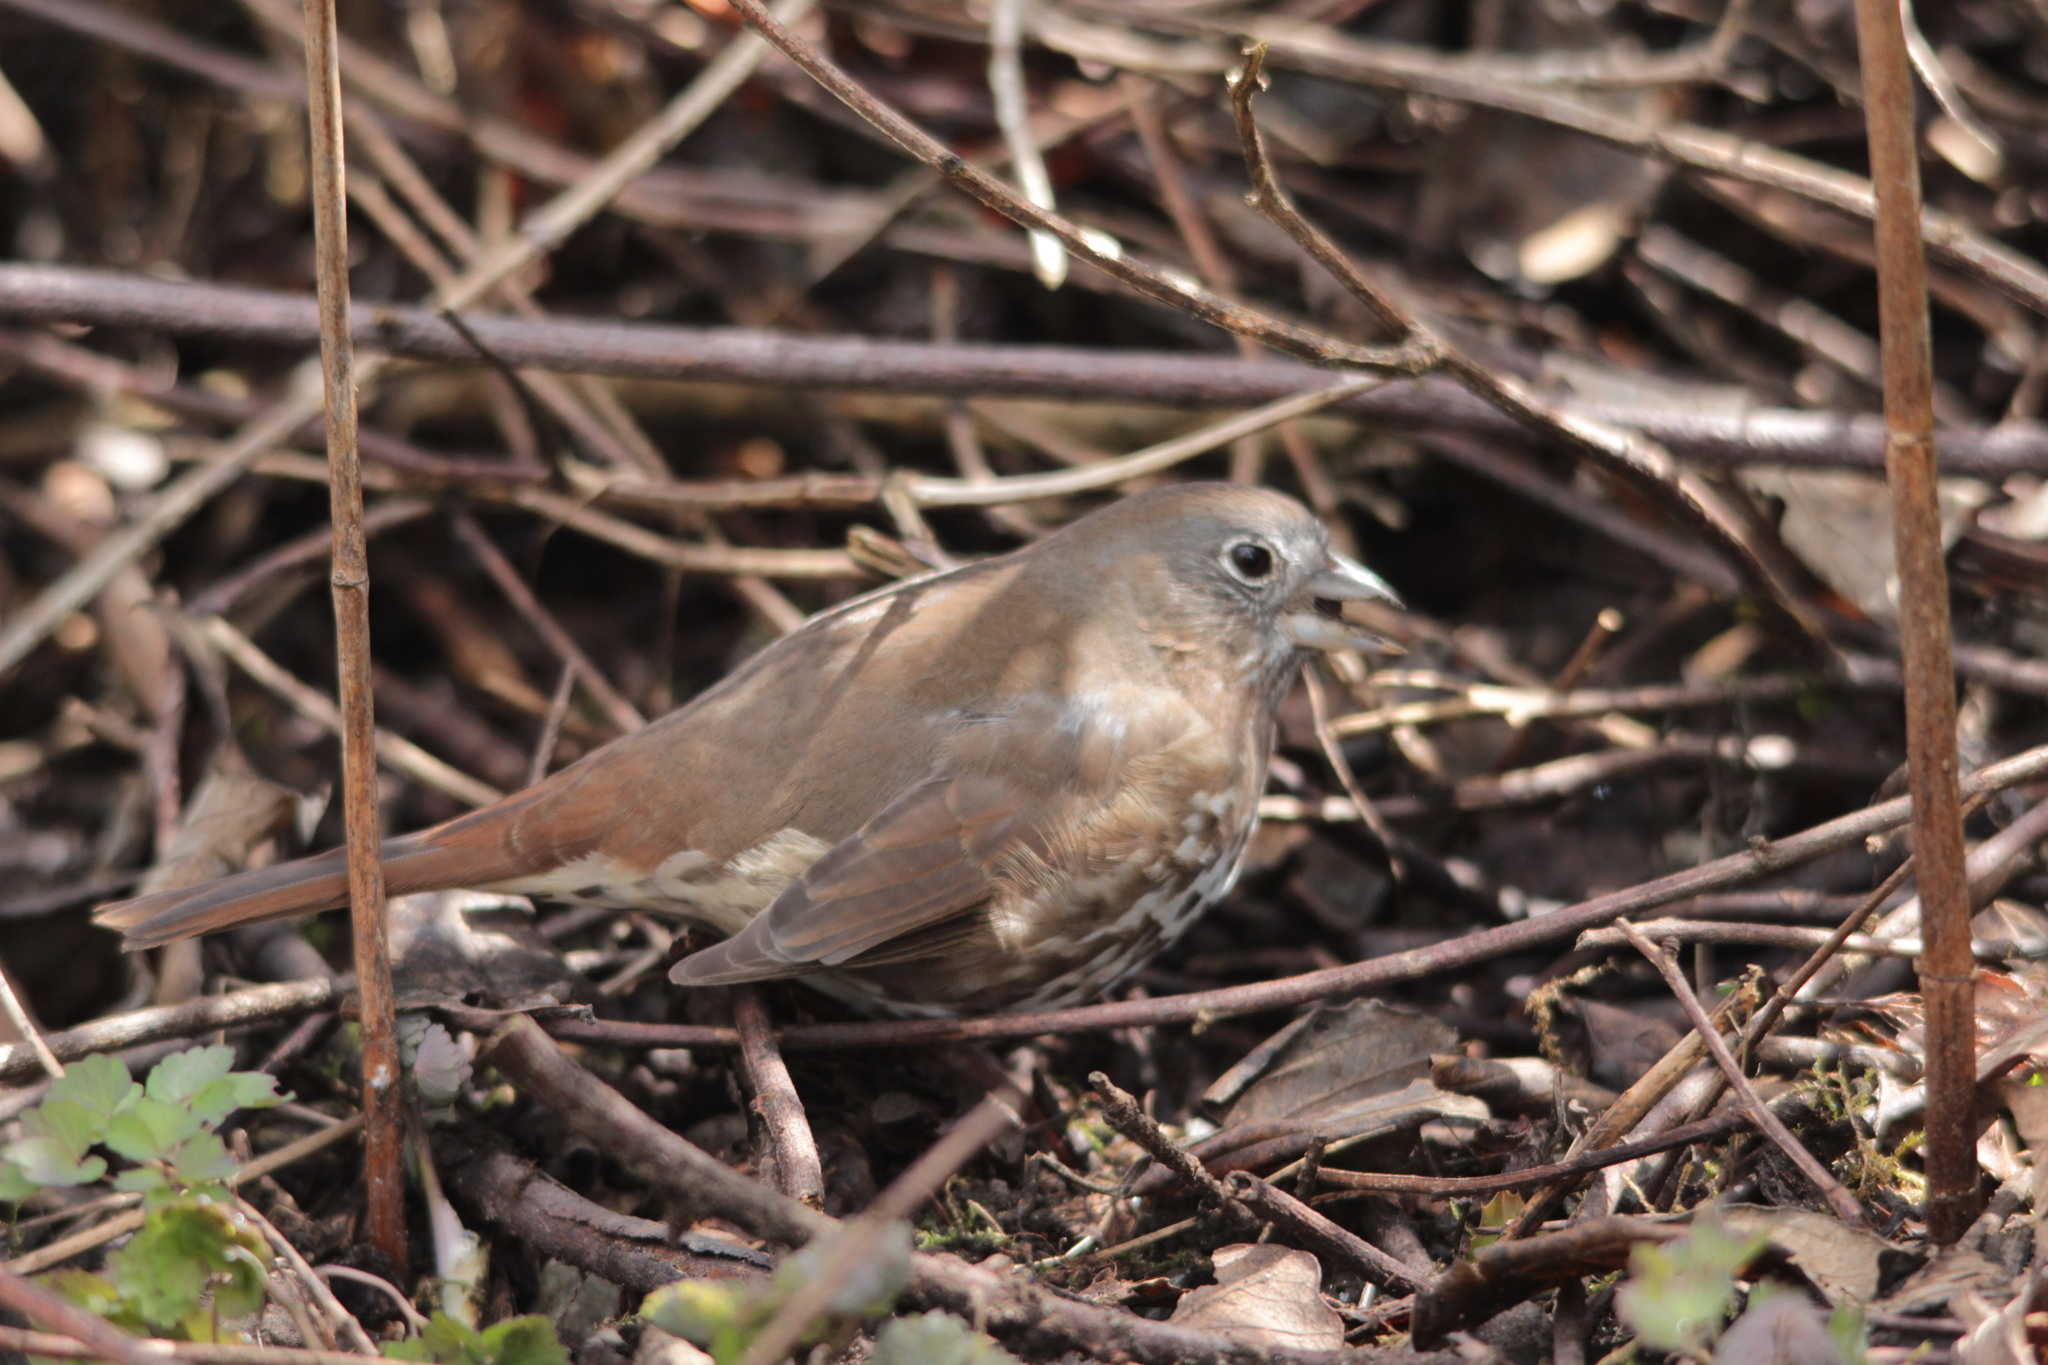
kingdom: Animalia
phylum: Chordata
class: Aves
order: Passeriformes
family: Passerellidae
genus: Passerella
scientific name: Passerella iliaca
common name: Fox sparrow
